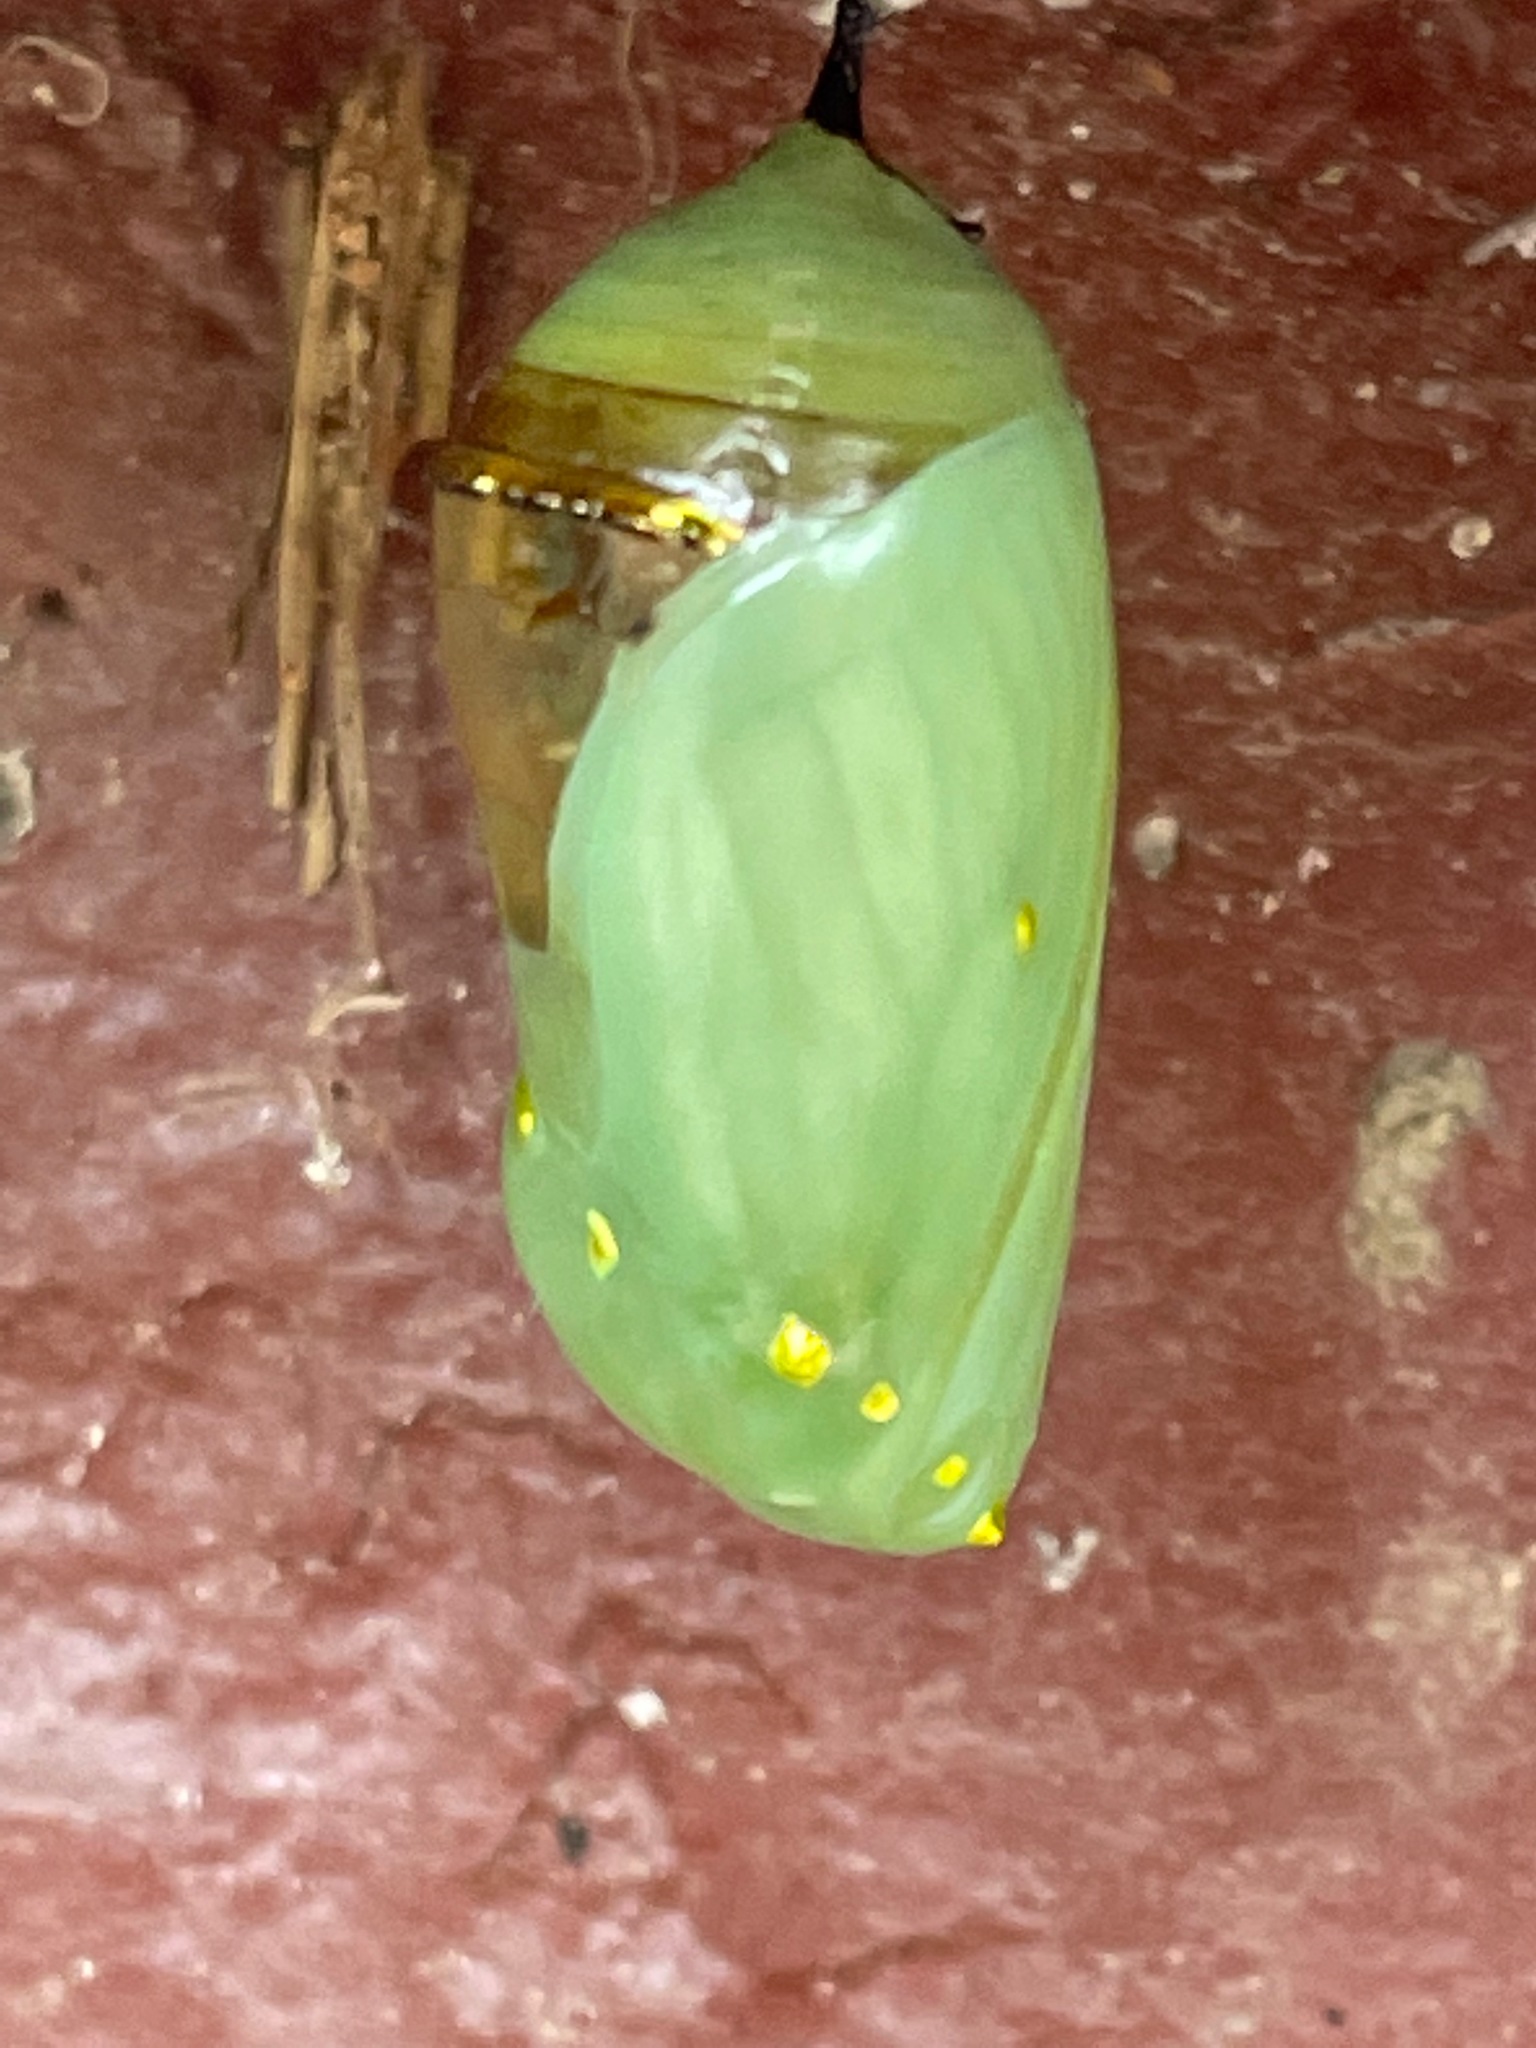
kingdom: Animalia
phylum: Arthropoda
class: Insecta
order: Lepidoptera
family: Nymphalidae
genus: Danaus
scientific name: Danaus plexippus
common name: Monarch
